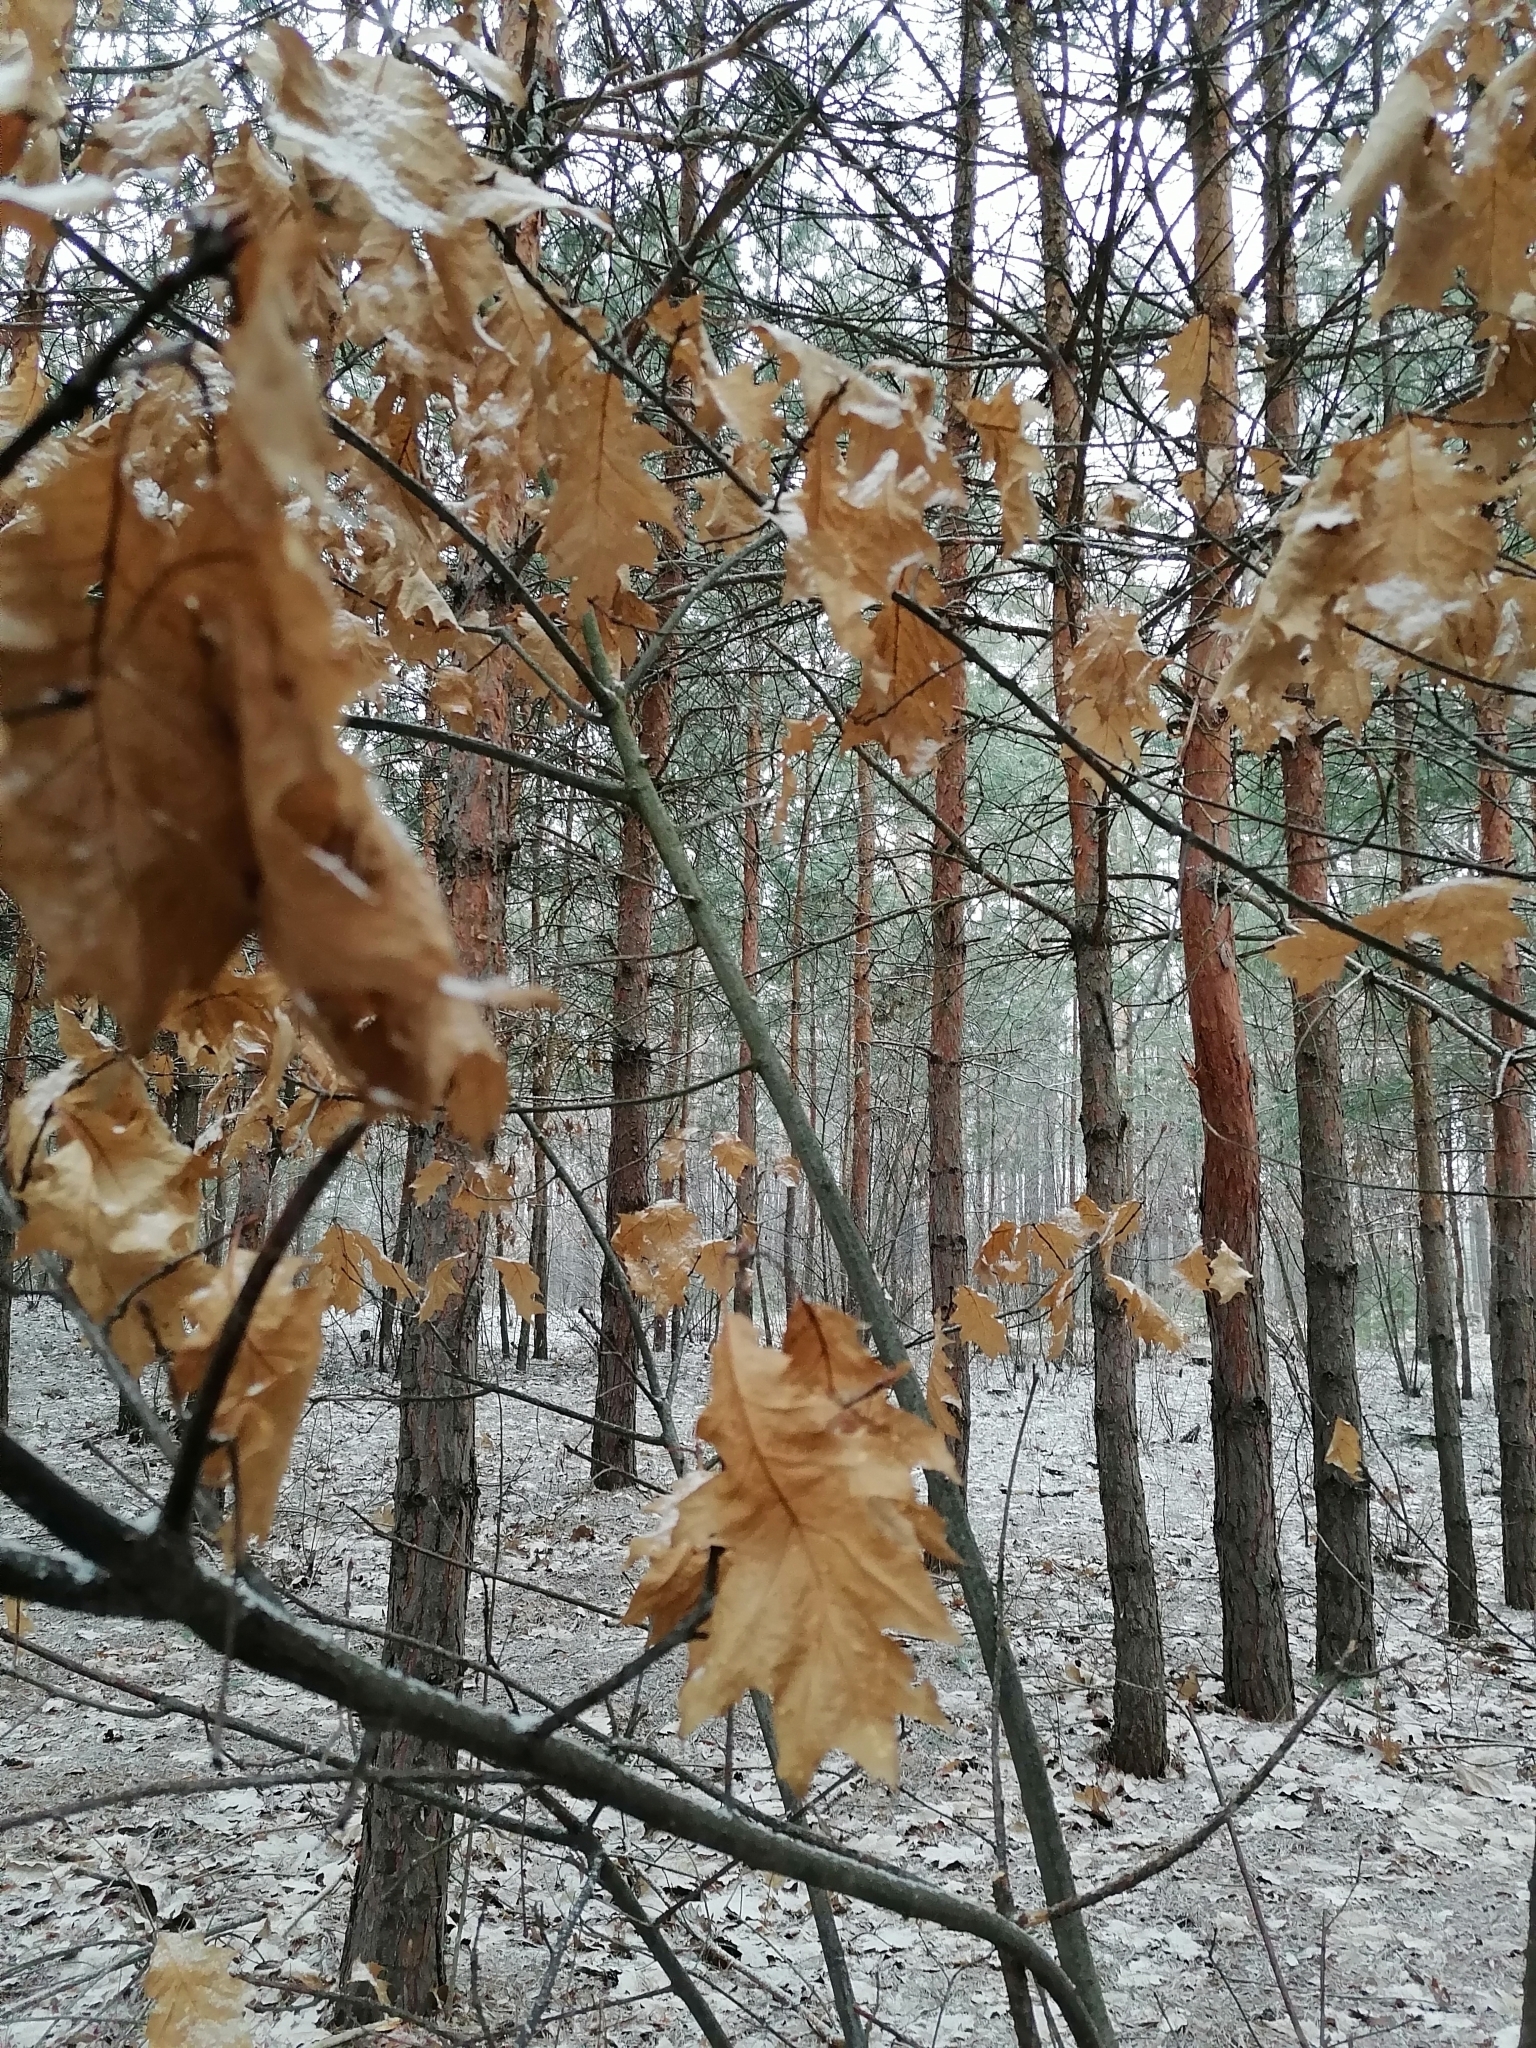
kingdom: Plantae
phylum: Tracheophyta
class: Magnoliopsida
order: Fagales
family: Fagaceae
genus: Quercus
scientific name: Quercus rubra
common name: Red oak
